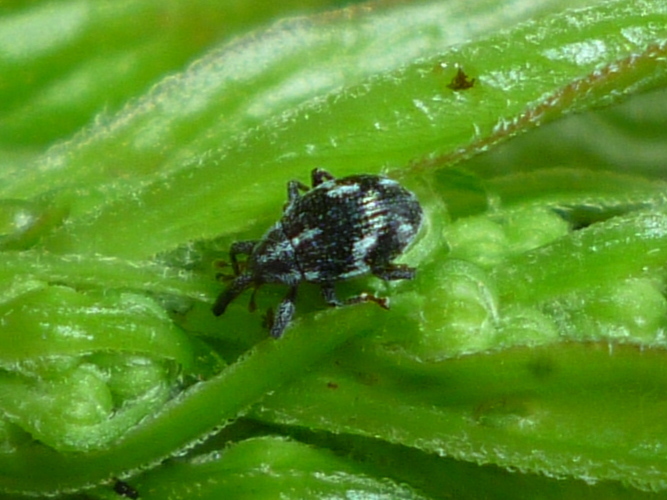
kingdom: Animalia
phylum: Arthropoda
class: Insecta
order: Coleoptera
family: Curculionidae
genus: Anthonomus
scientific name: Anthonomus lecontei
